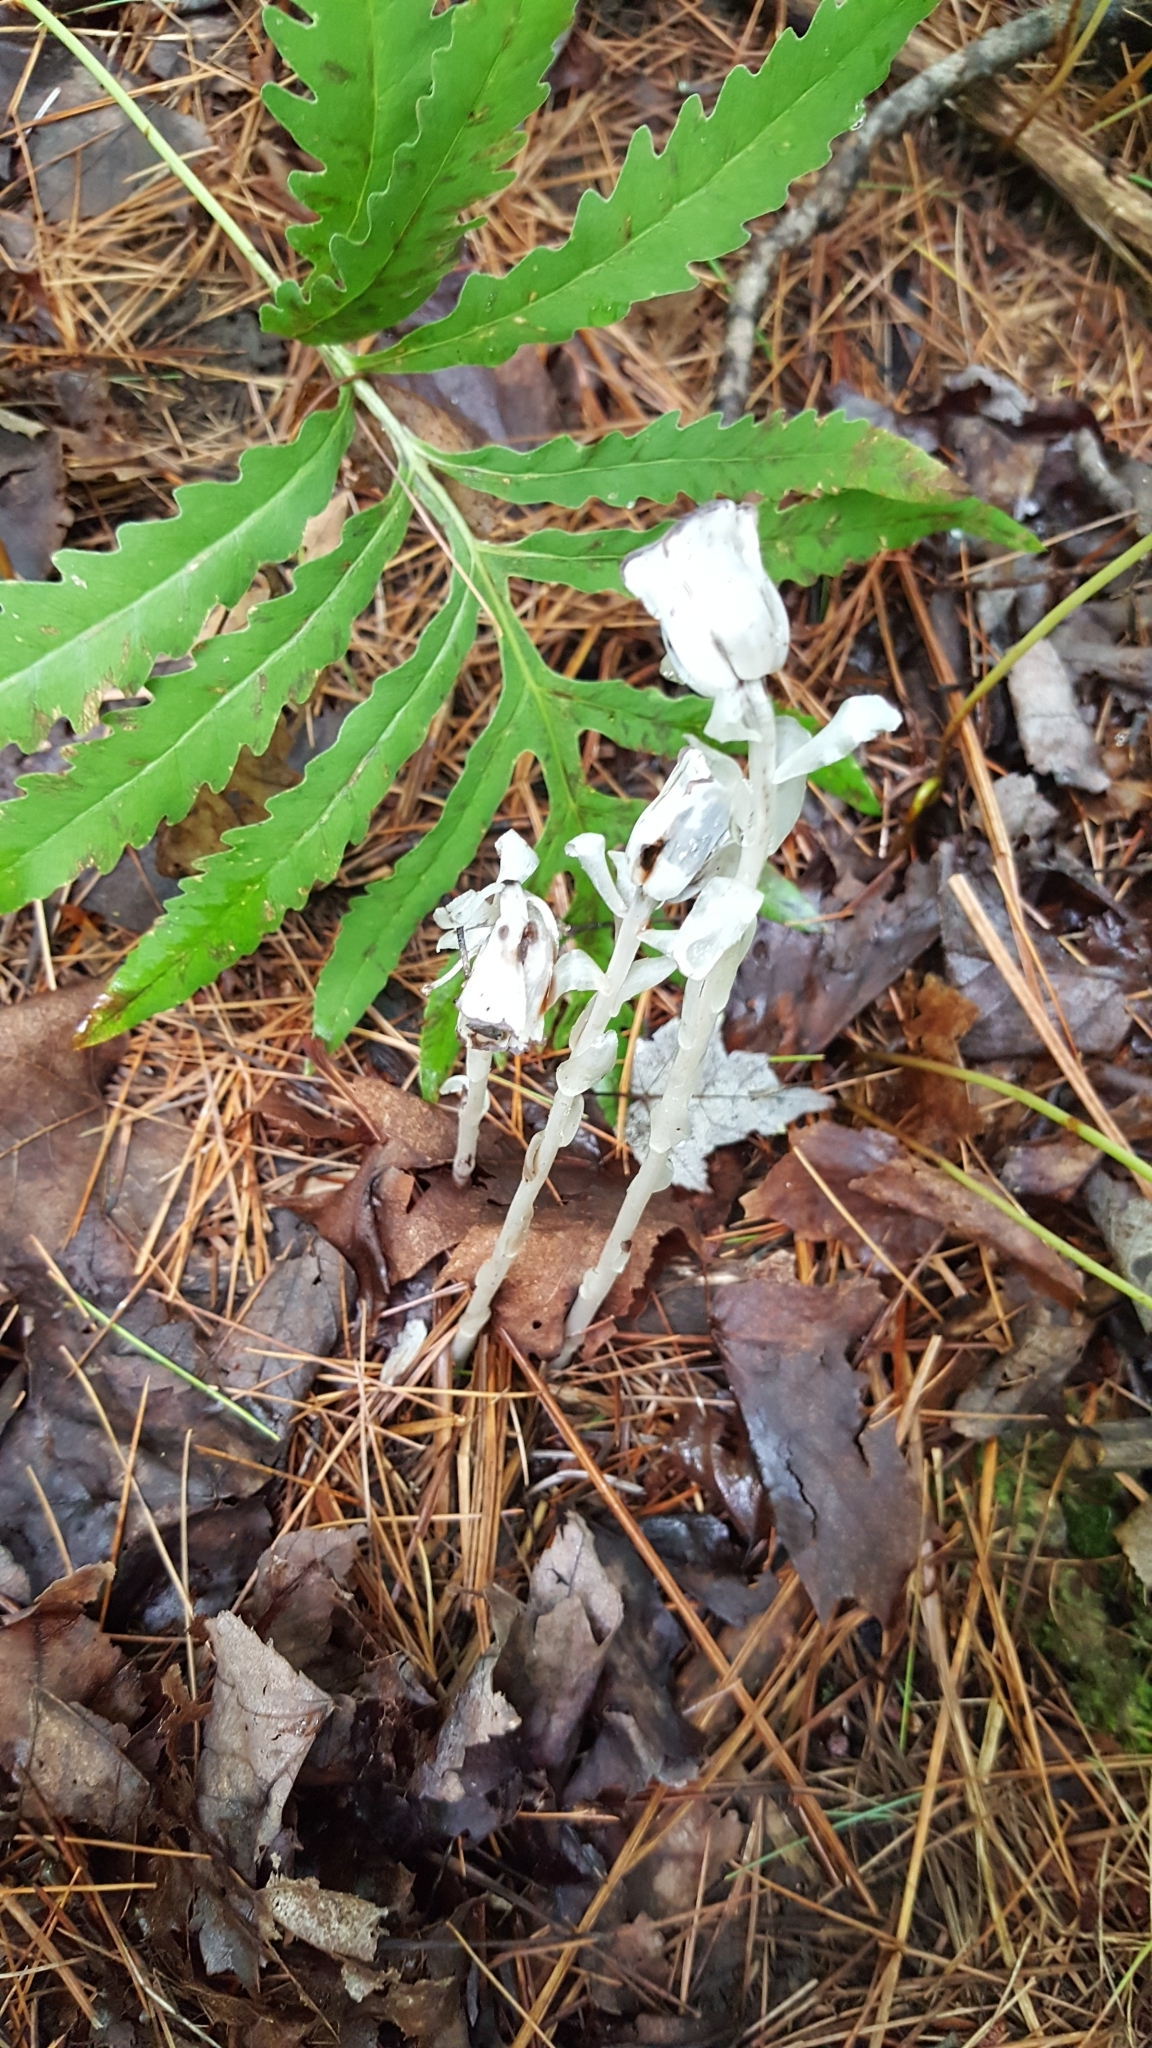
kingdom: Plantae
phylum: Tracheophyta
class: Magnoliopsida
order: Ericales
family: Ericaceae
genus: Monotropa
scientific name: Monotropa uniflora
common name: Convulsion root
